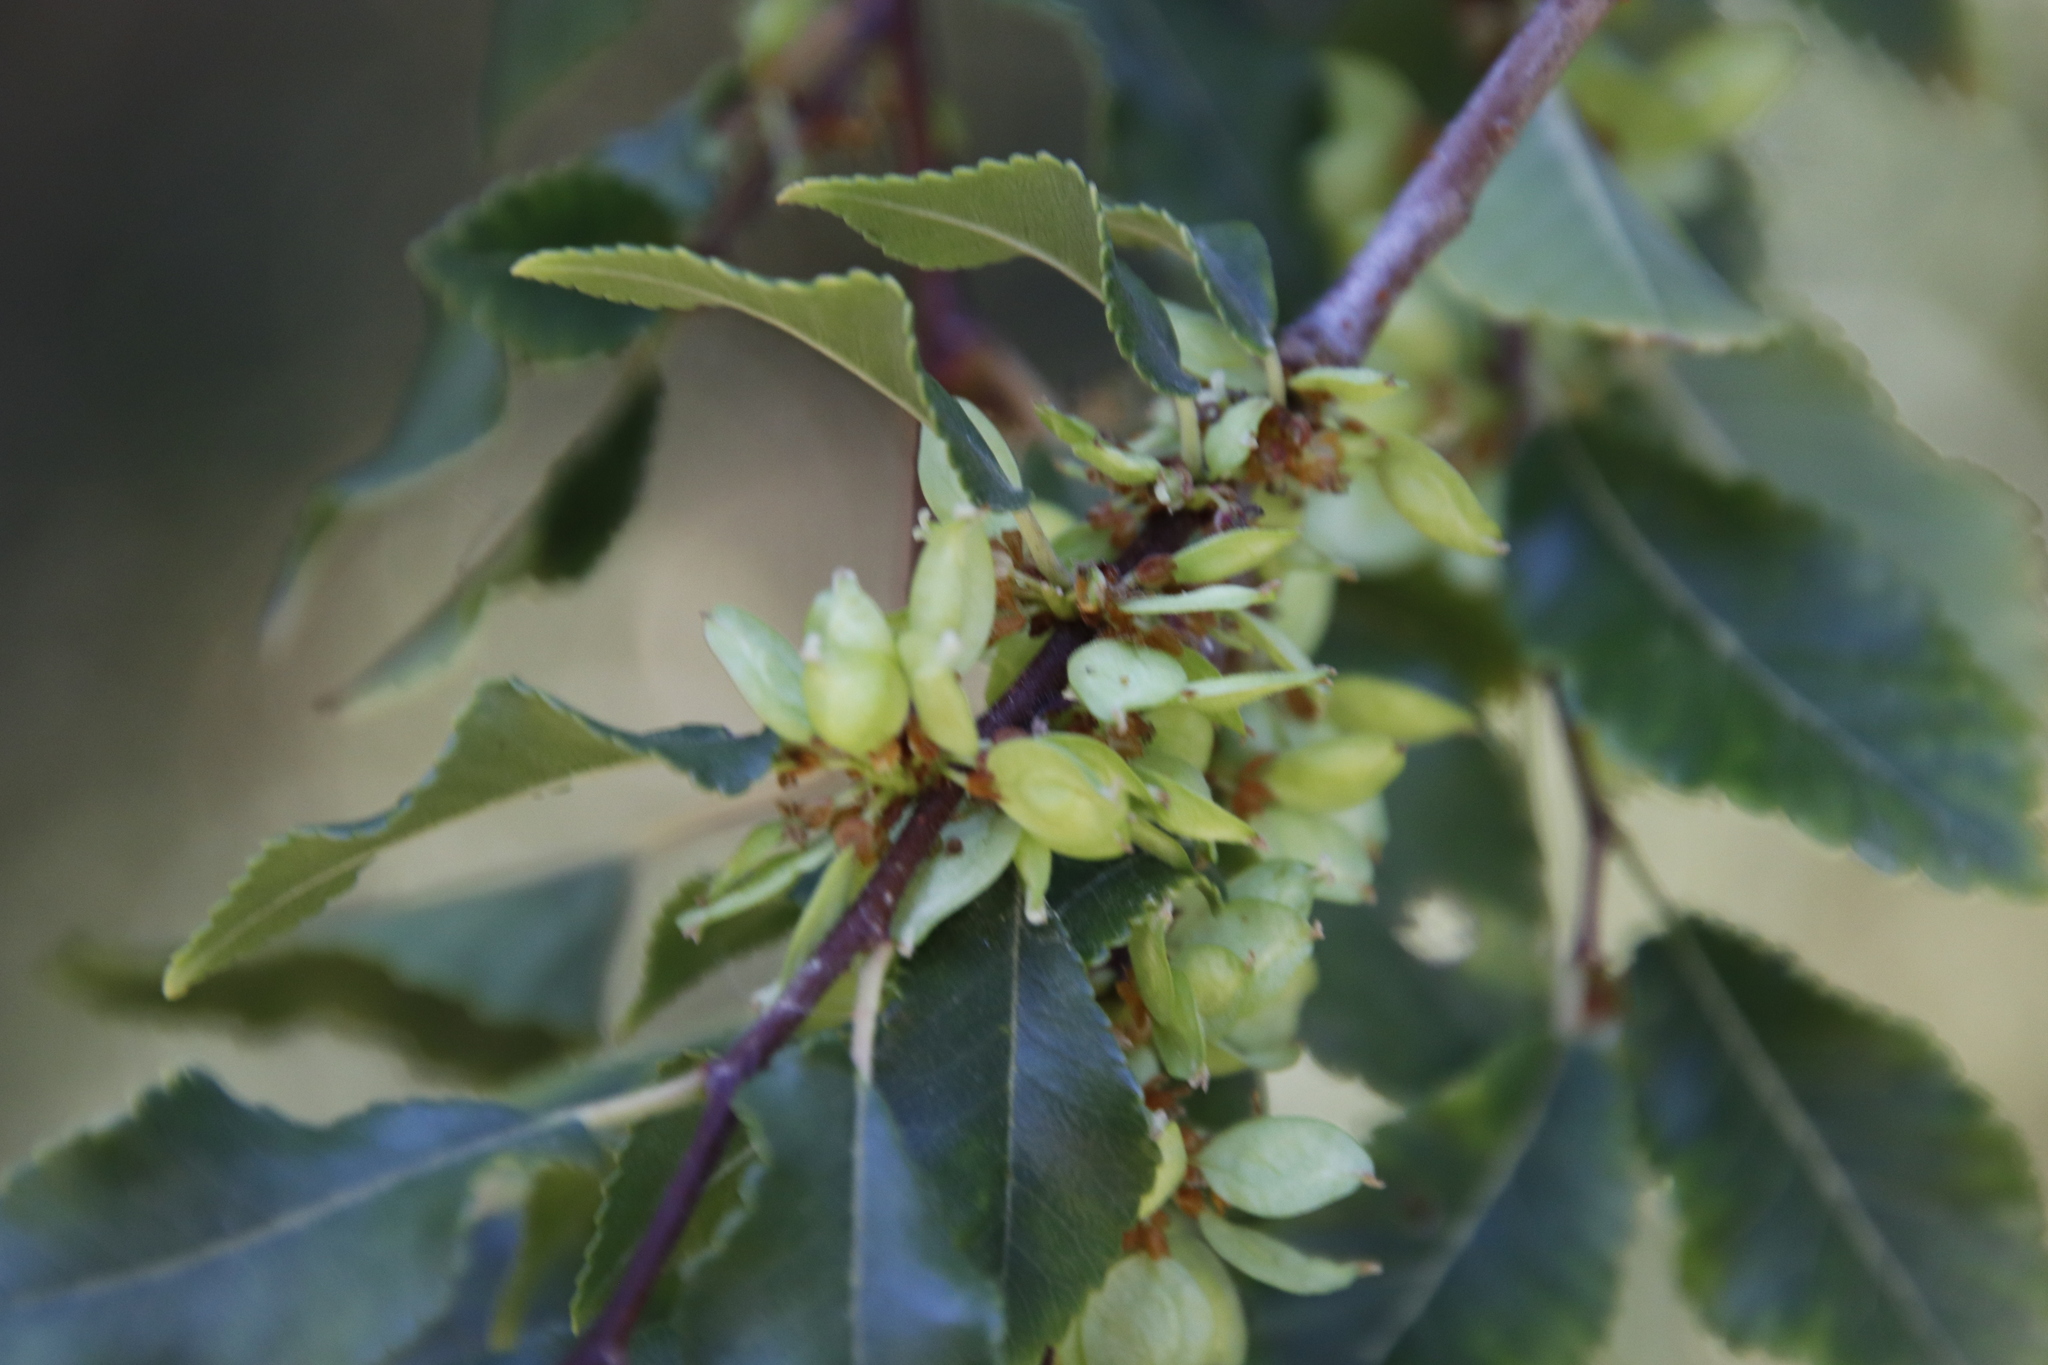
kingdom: Plantae
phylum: Tracheophyta
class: Magnoliopsida
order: Rosales
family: Ulmaceae
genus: Ulmus
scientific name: Ulmus parvifolia
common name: Chinese elm
